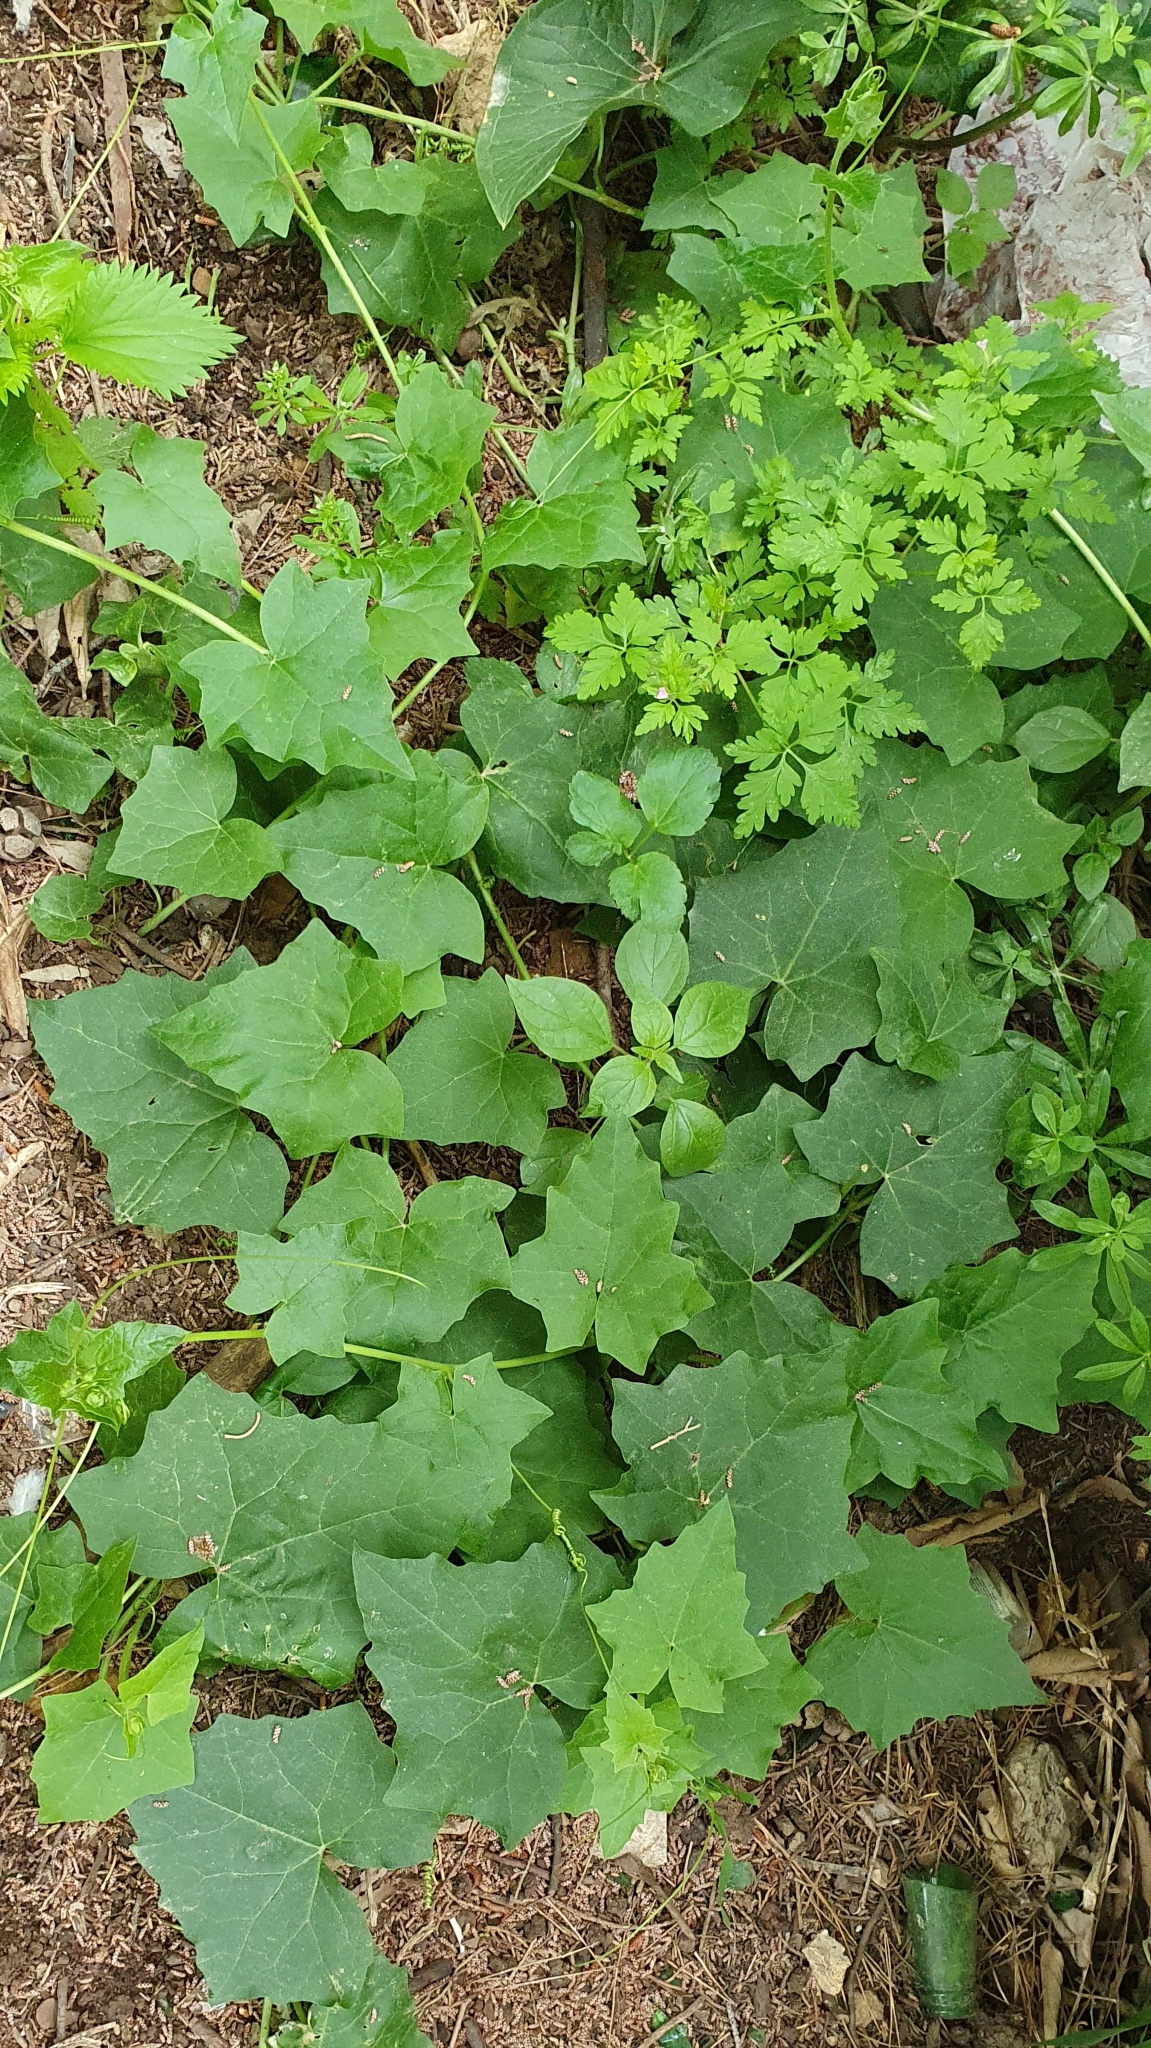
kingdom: Plantae
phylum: Tracheophyta
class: Magnoliopsida
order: Cucurbitales
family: Cucurbitaceae
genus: Bryonia
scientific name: Bryonia cretica
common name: Cretan bryony
